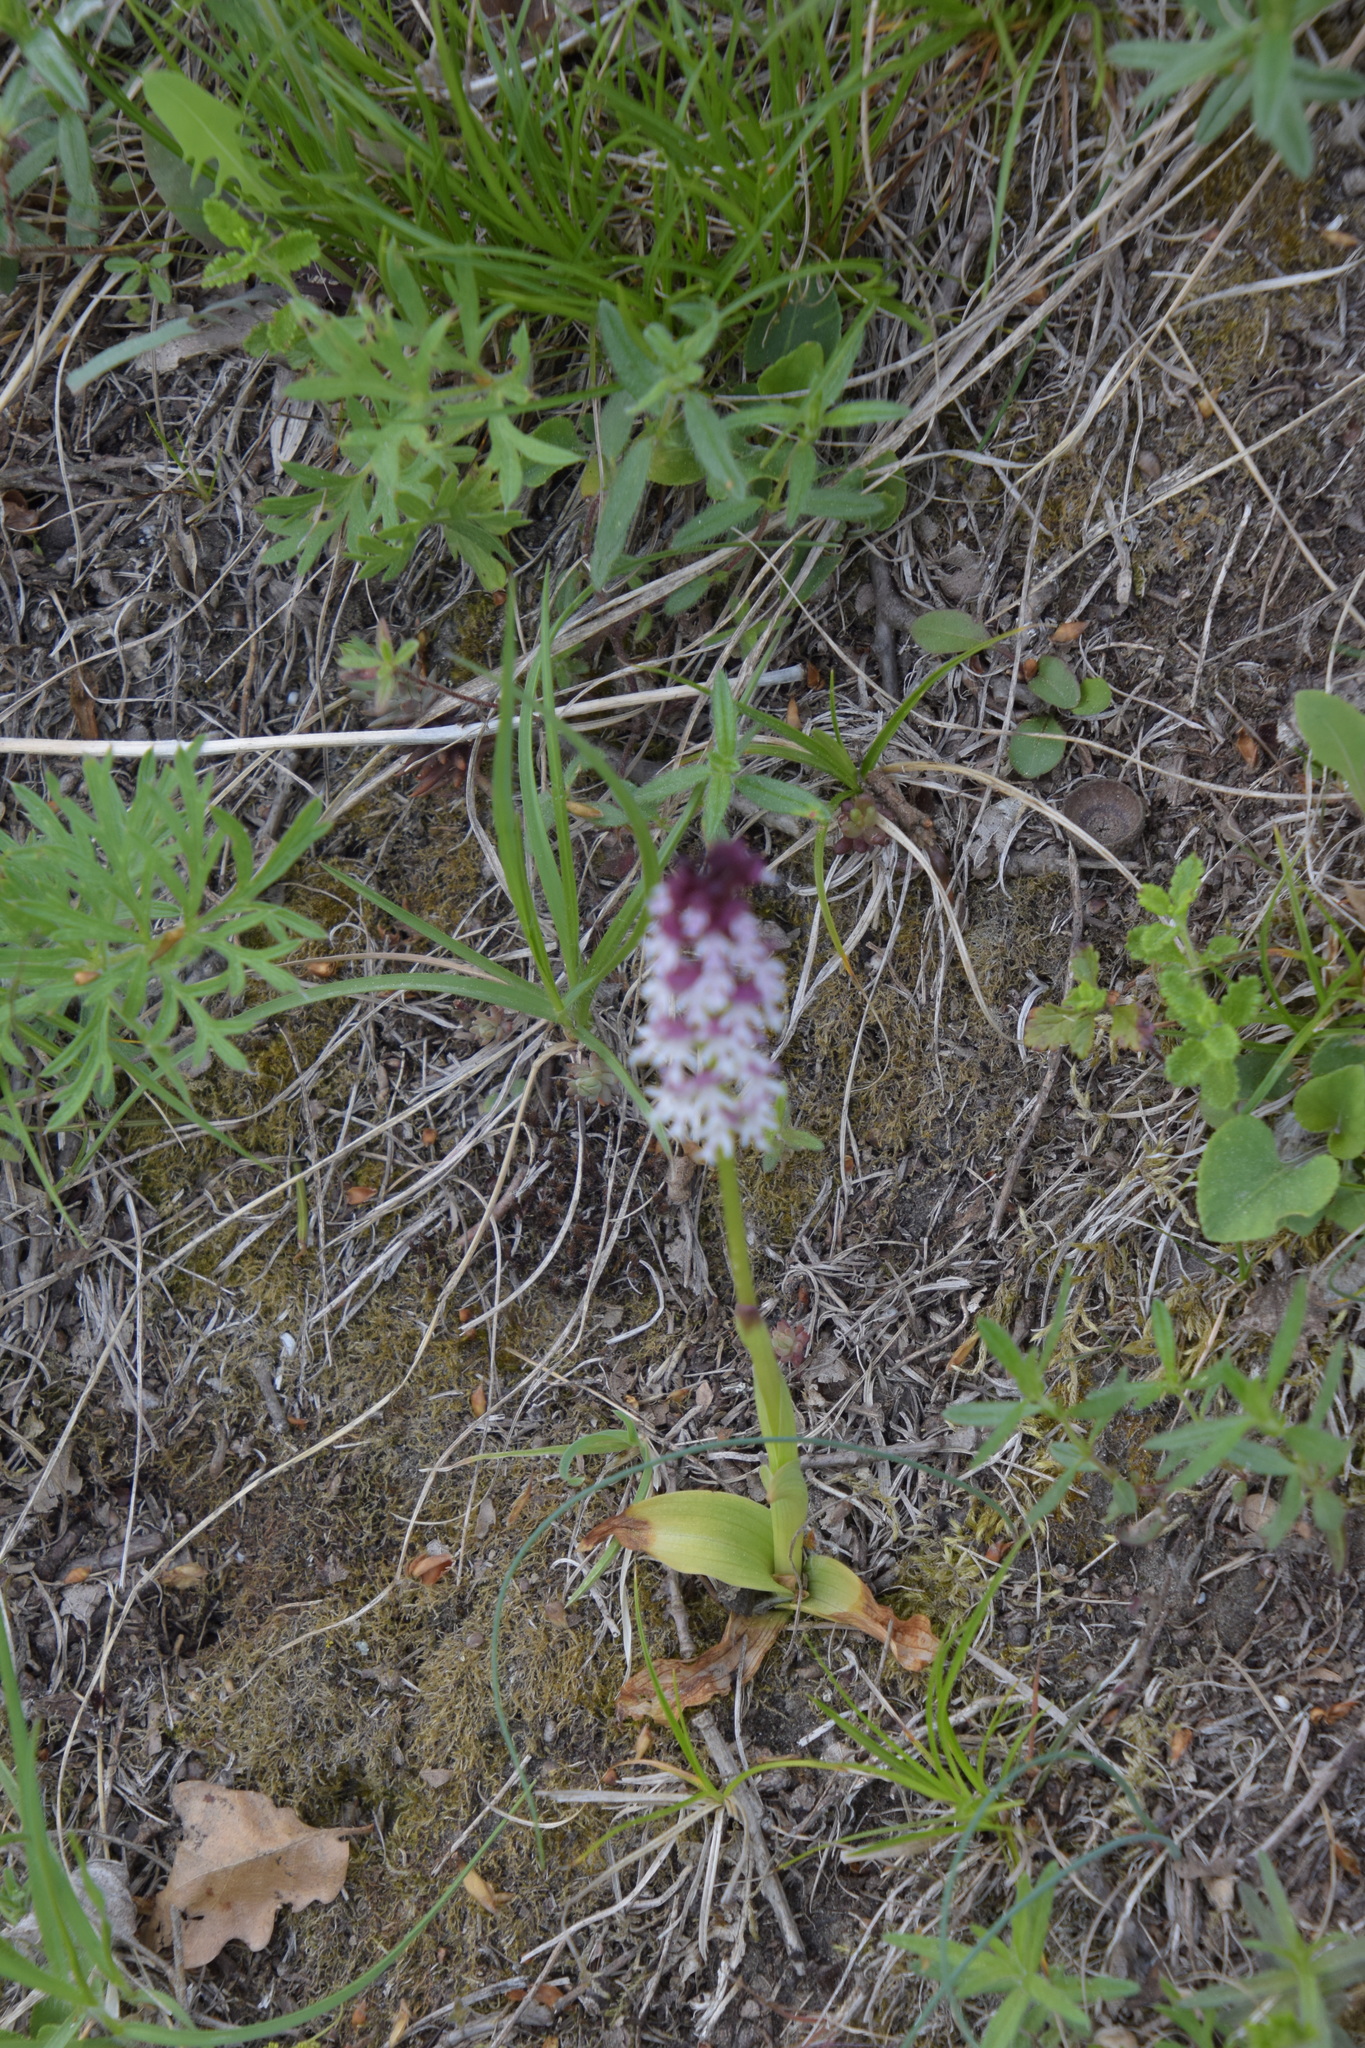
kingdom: Plantae
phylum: Tracheophyta
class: Liliopsida
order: Asparagales
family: Orchidaceae
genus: Neotinea
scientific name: Neotinea ustulata
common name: Burnt orchid
